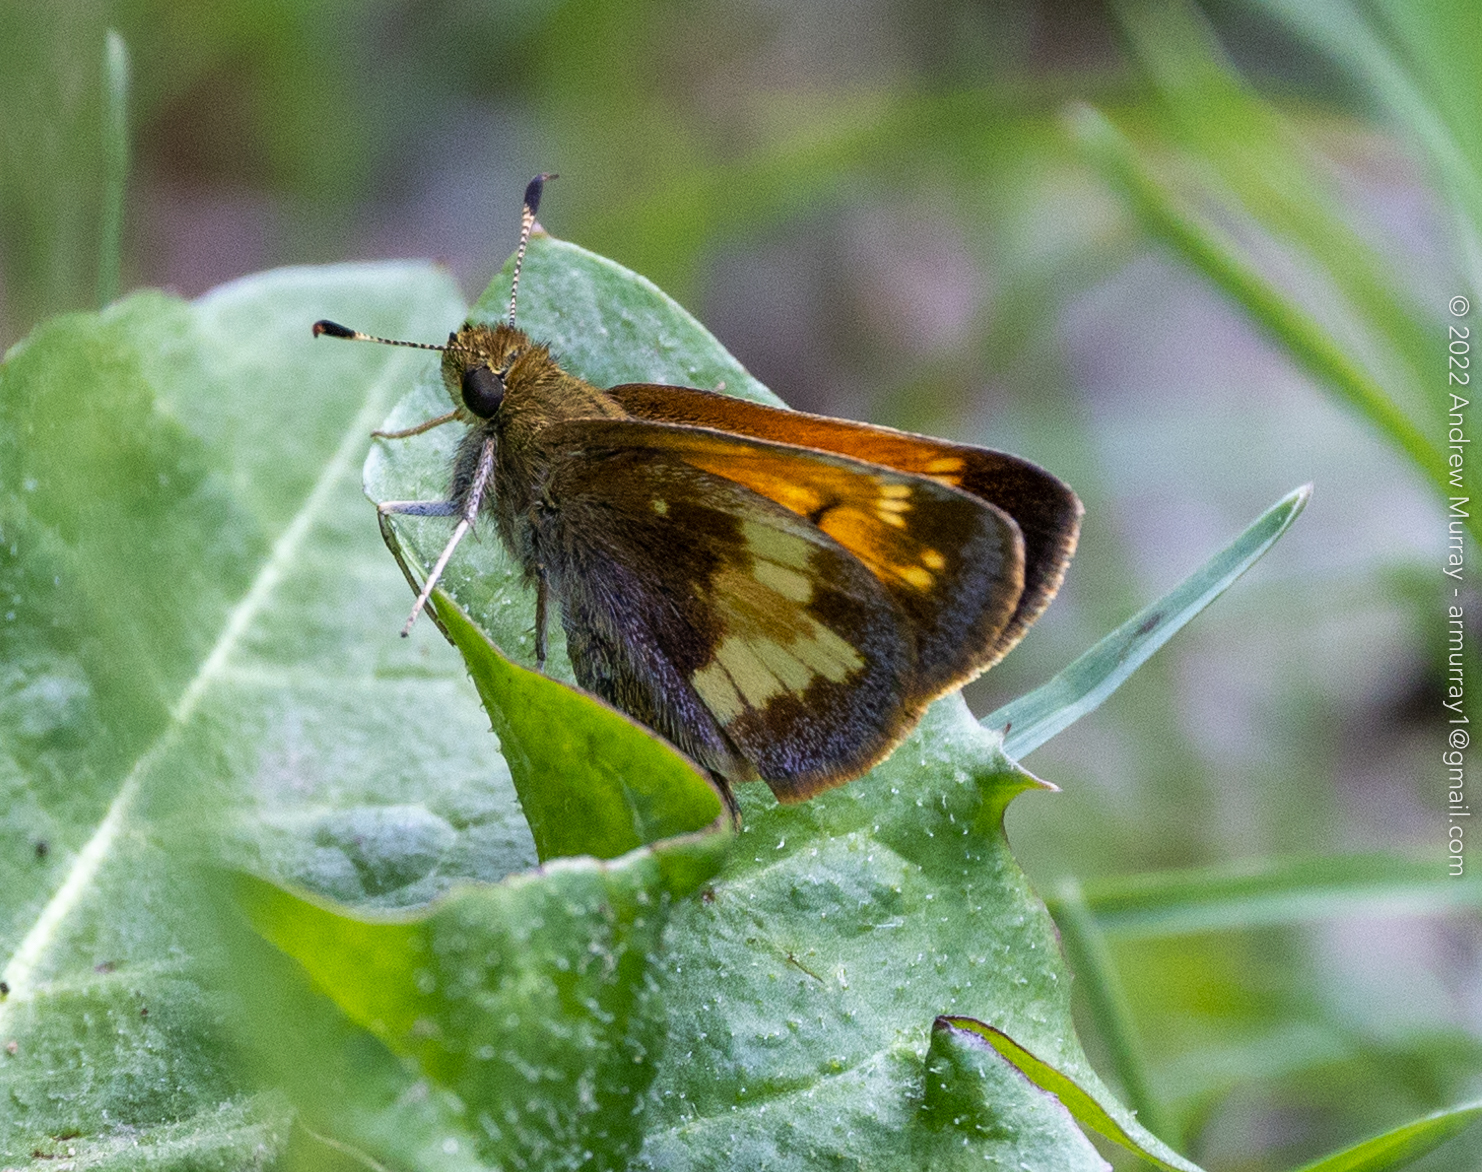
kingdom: Animalia
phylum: Arthropoda
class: Insecta
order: Lepidoptera
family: Hesperiidae
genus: Lon
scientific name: Lon hobomok
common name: Hobomok skipper
